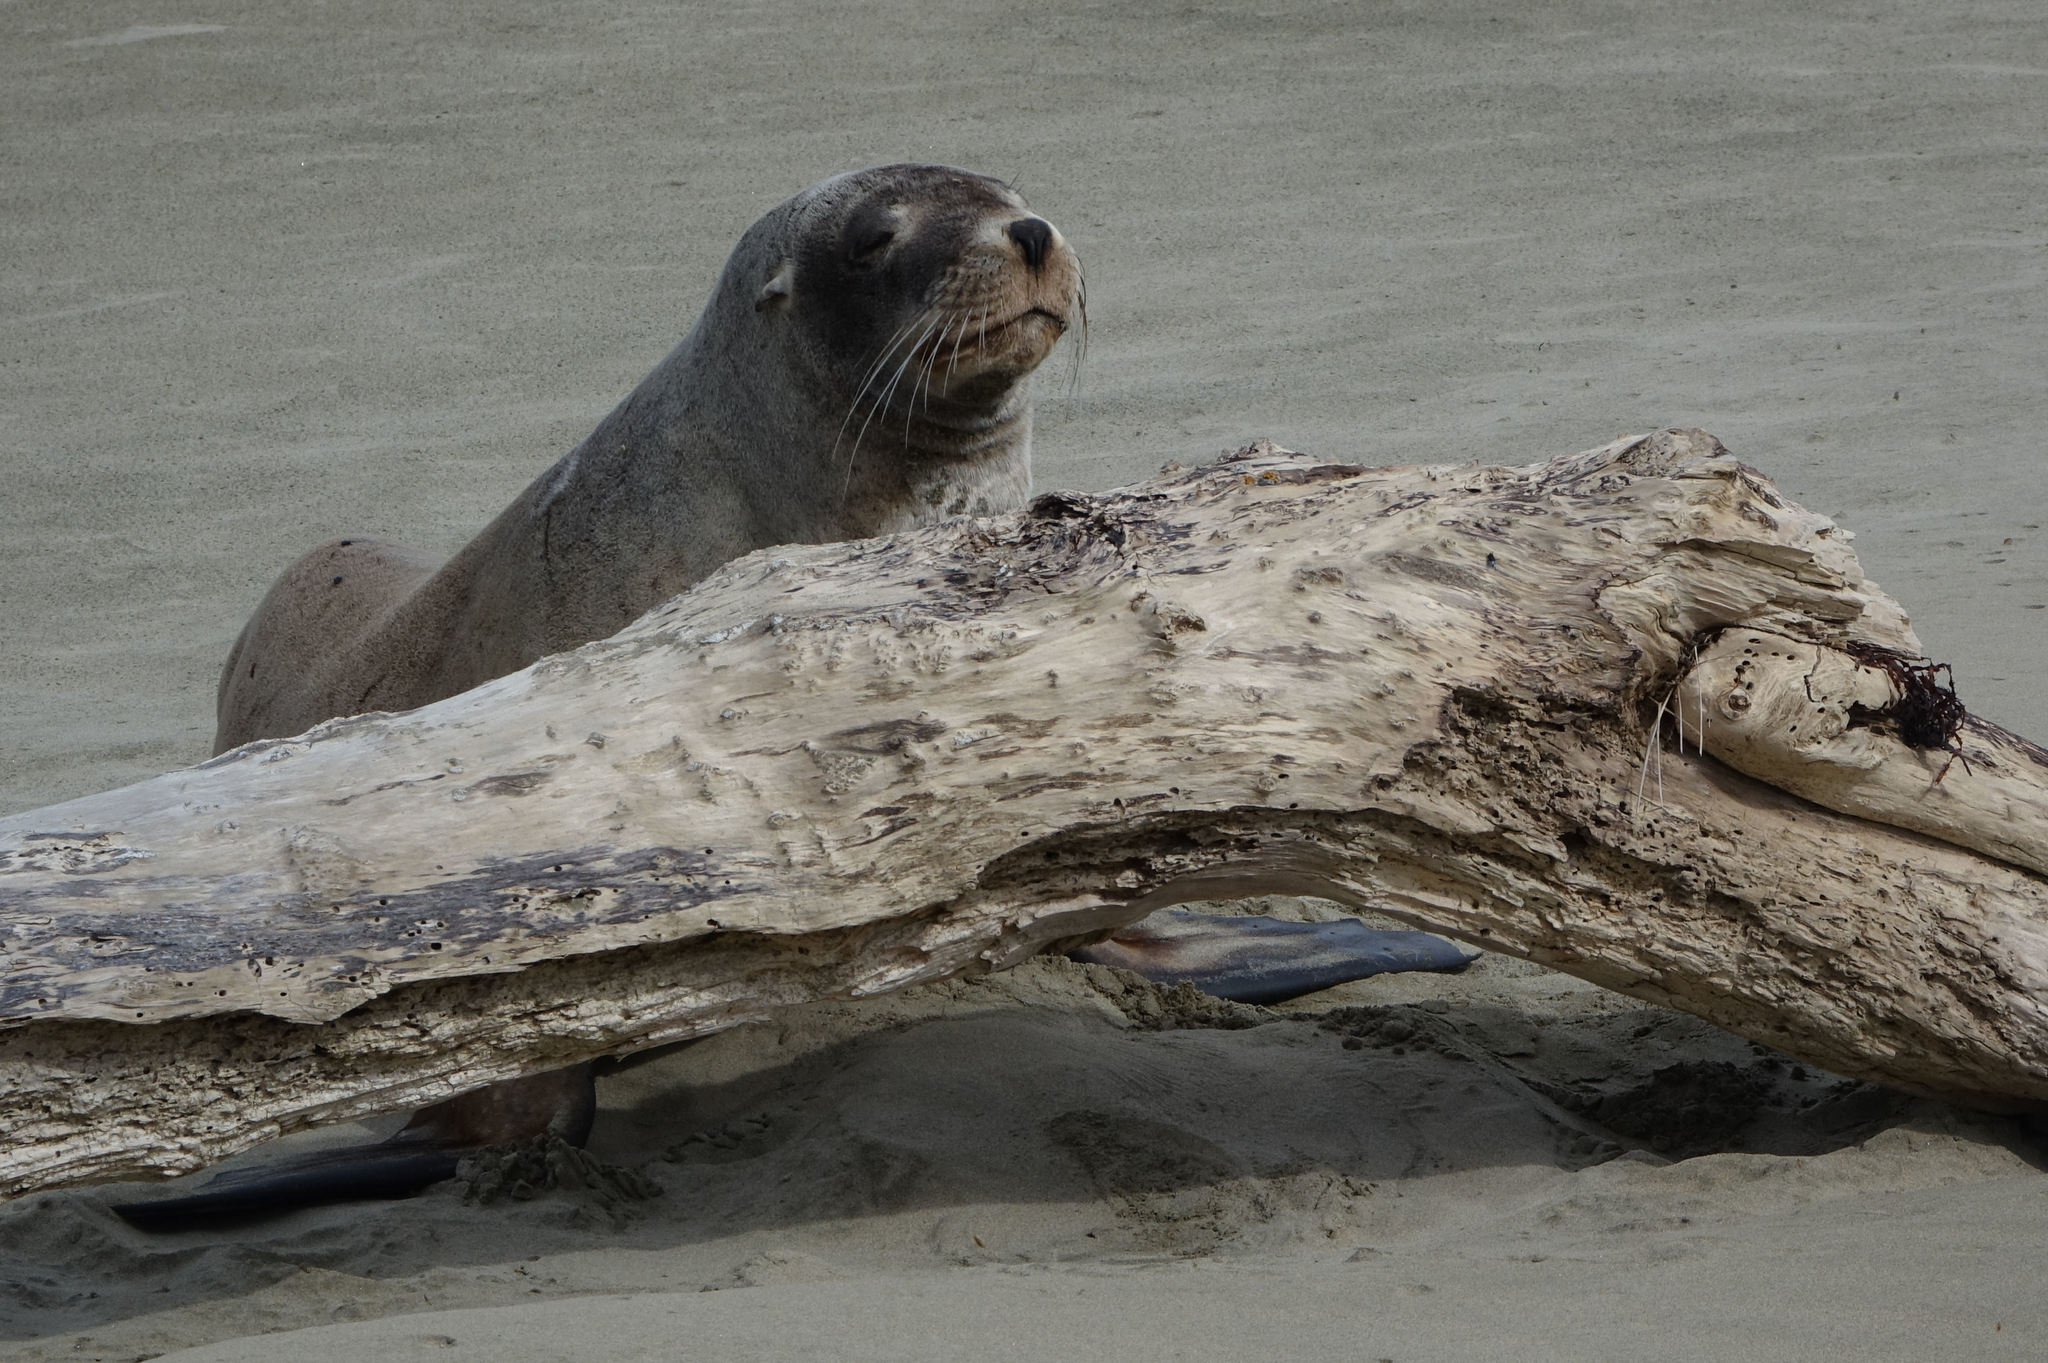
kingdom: Animalia
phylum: Chordata
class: Mammalia
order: Carnivora
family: Otariidae
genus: Phocarctos
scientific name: Phocarctos hookeri
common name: New zealand sea lion
